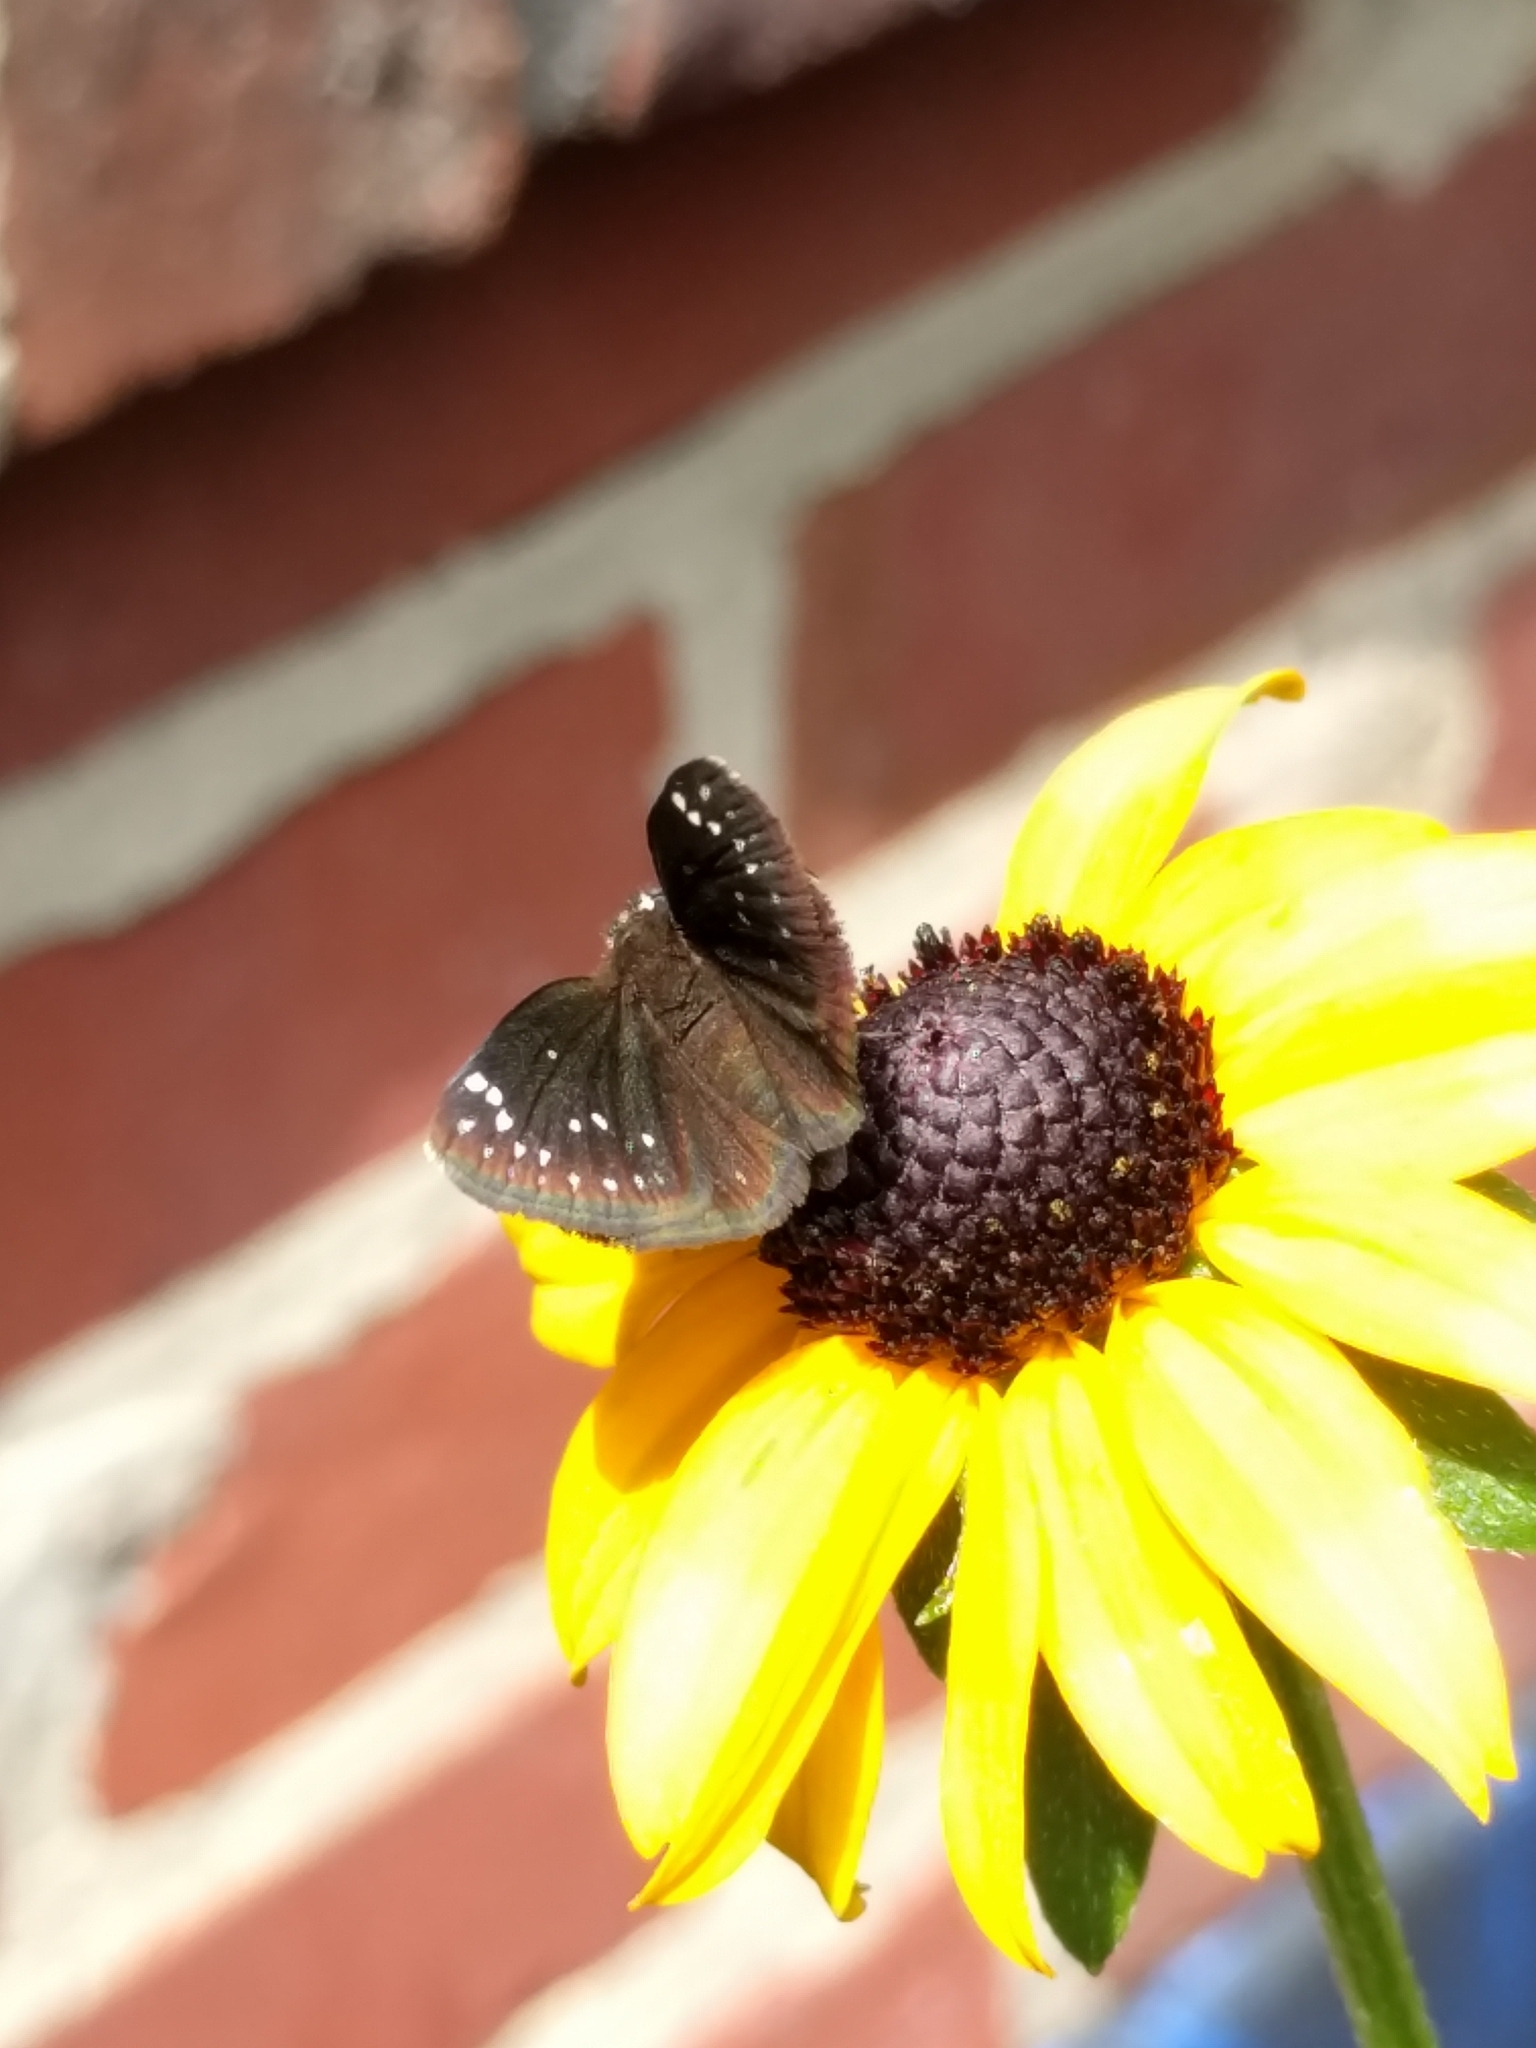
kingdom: Animalia
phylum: Arthropoda
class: Insecta
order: Lepidoptera
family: Hesperiidae
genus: Pholisora
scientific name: Pholisora catullus
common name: Common sootywing
